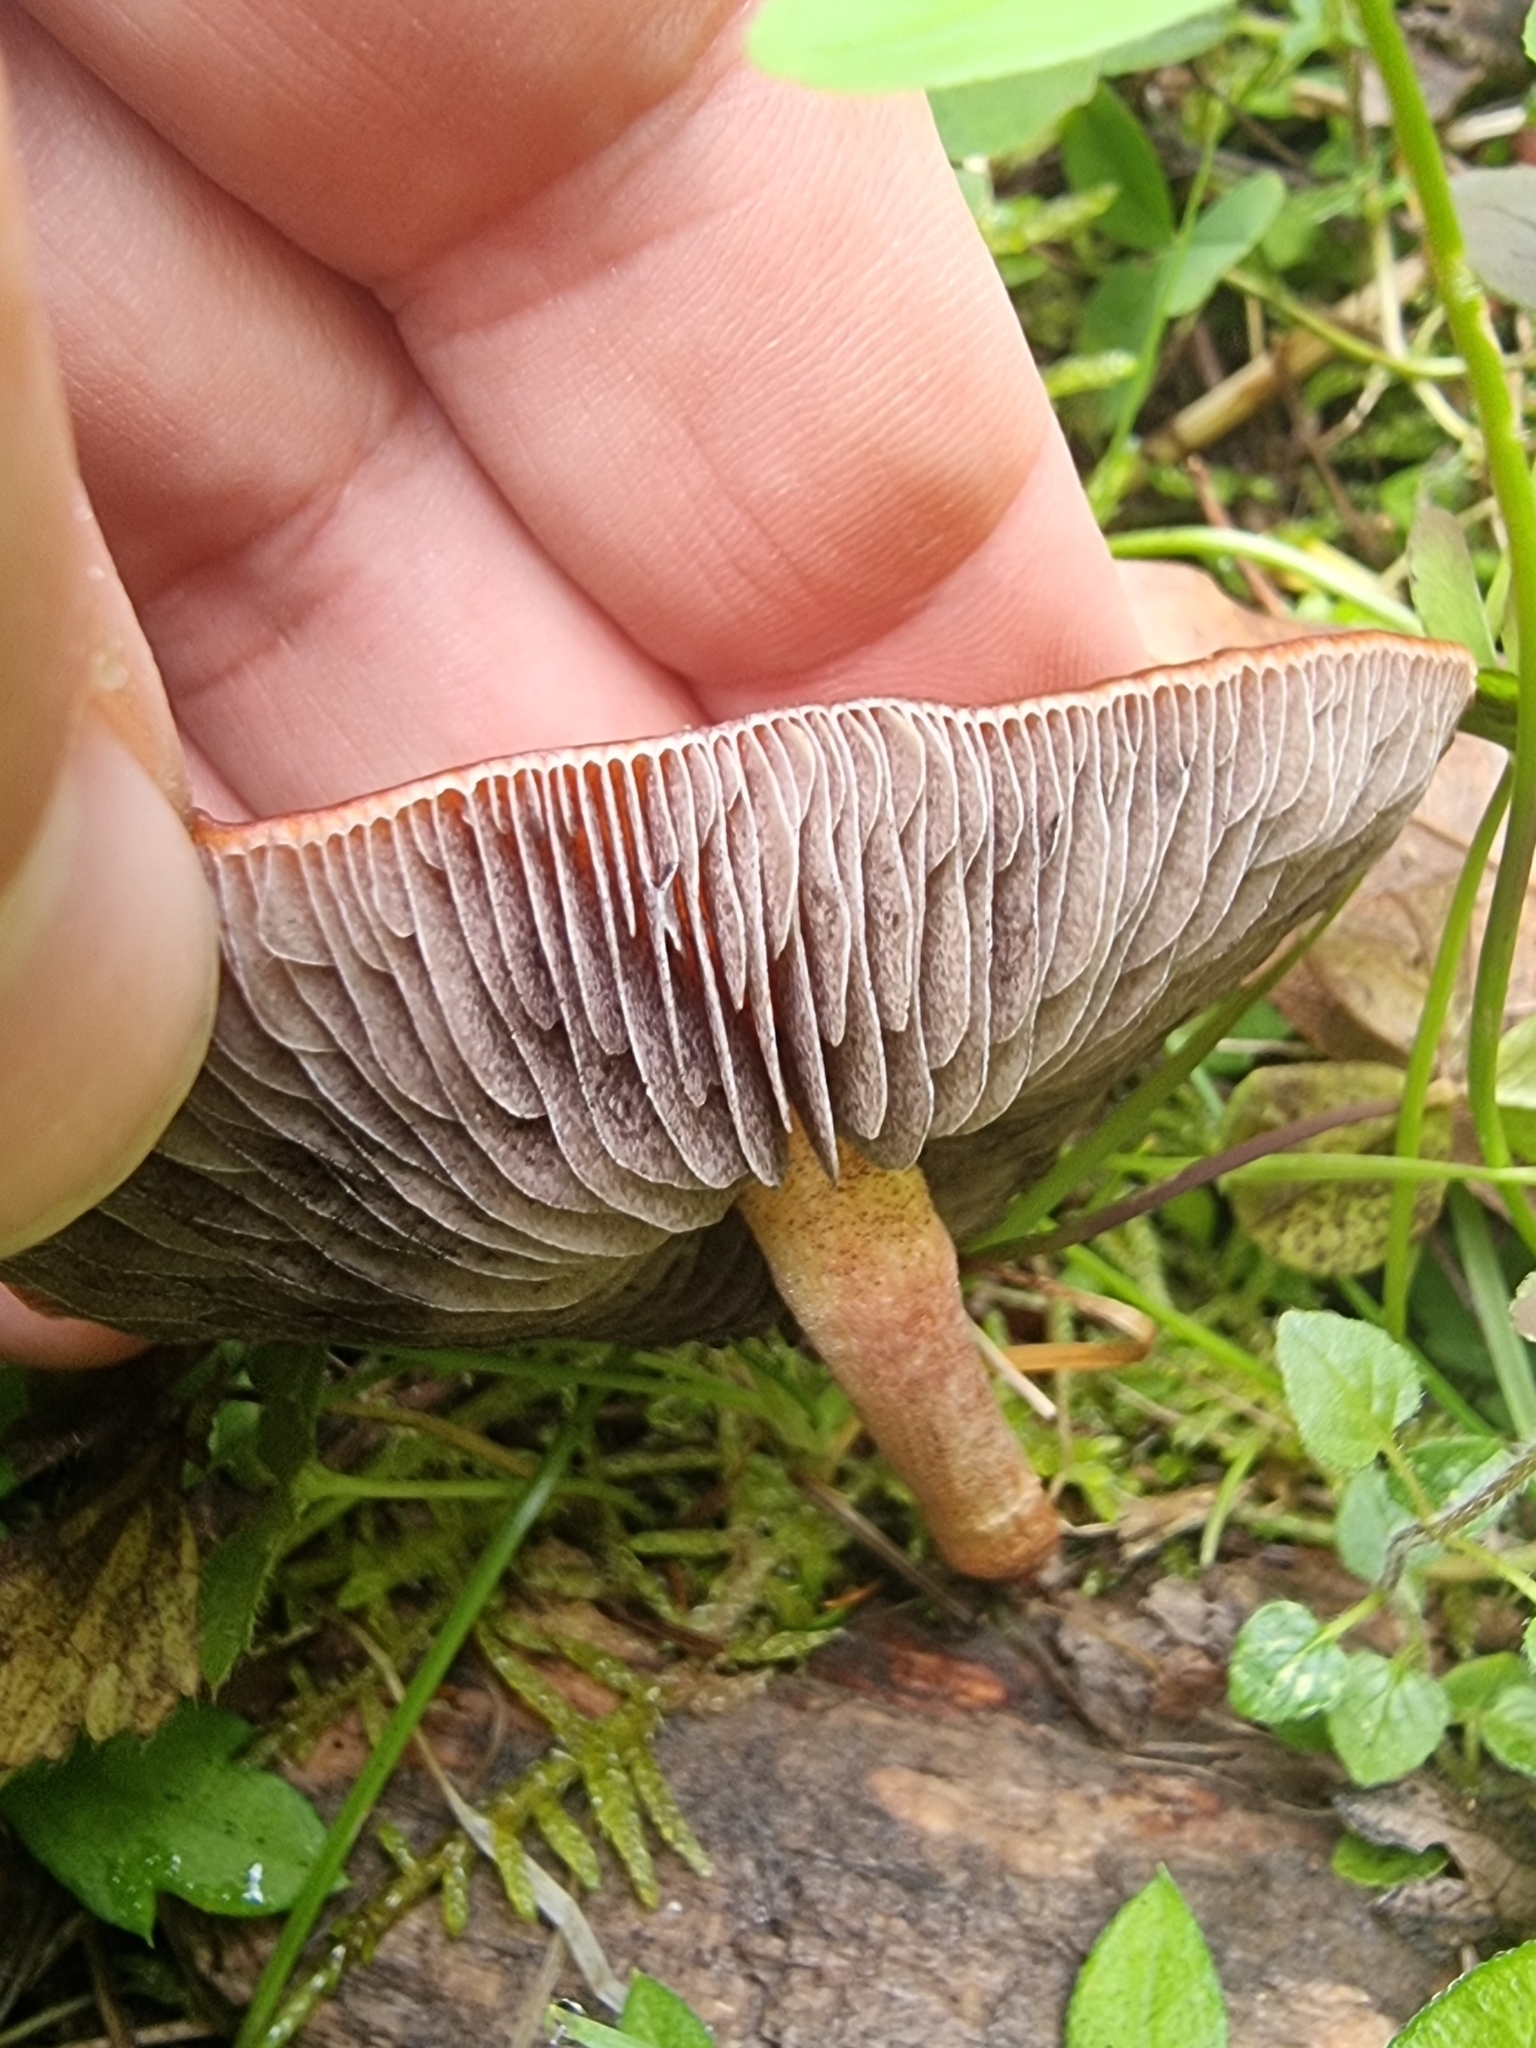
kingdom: Fungi
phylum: Basidiomycota
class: Agaricomycetes
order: Agaricales
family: Strophariaceae
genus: Leratiomyces
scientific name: Leratiomyces ceres
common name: Redlead roundhead
